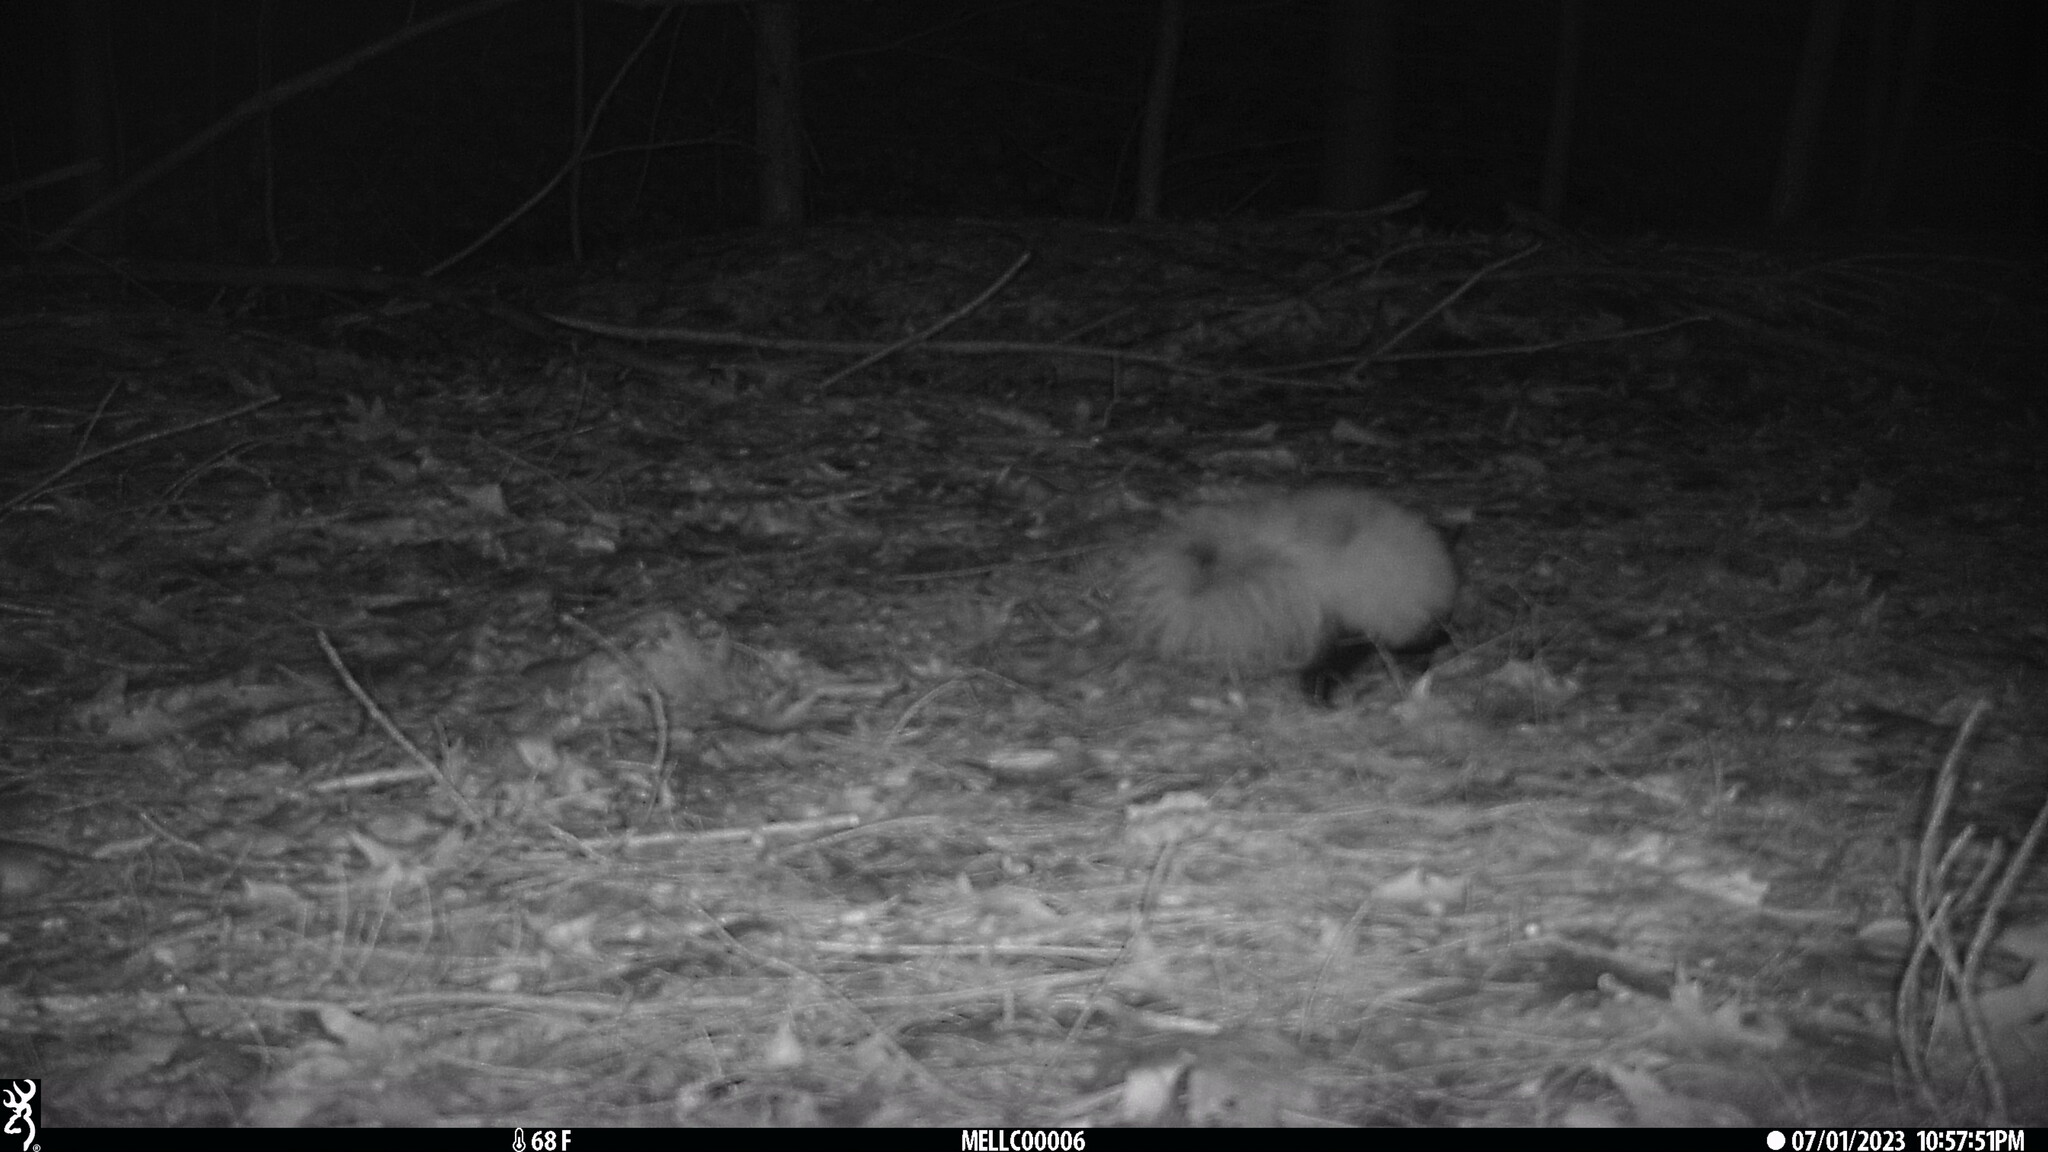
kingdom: Animalia
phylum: Chordata
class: Mammalia
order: Carnivora
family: Mephitidae
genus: Mephitis
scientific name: Mephitis mephitis
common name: Striped skunk
